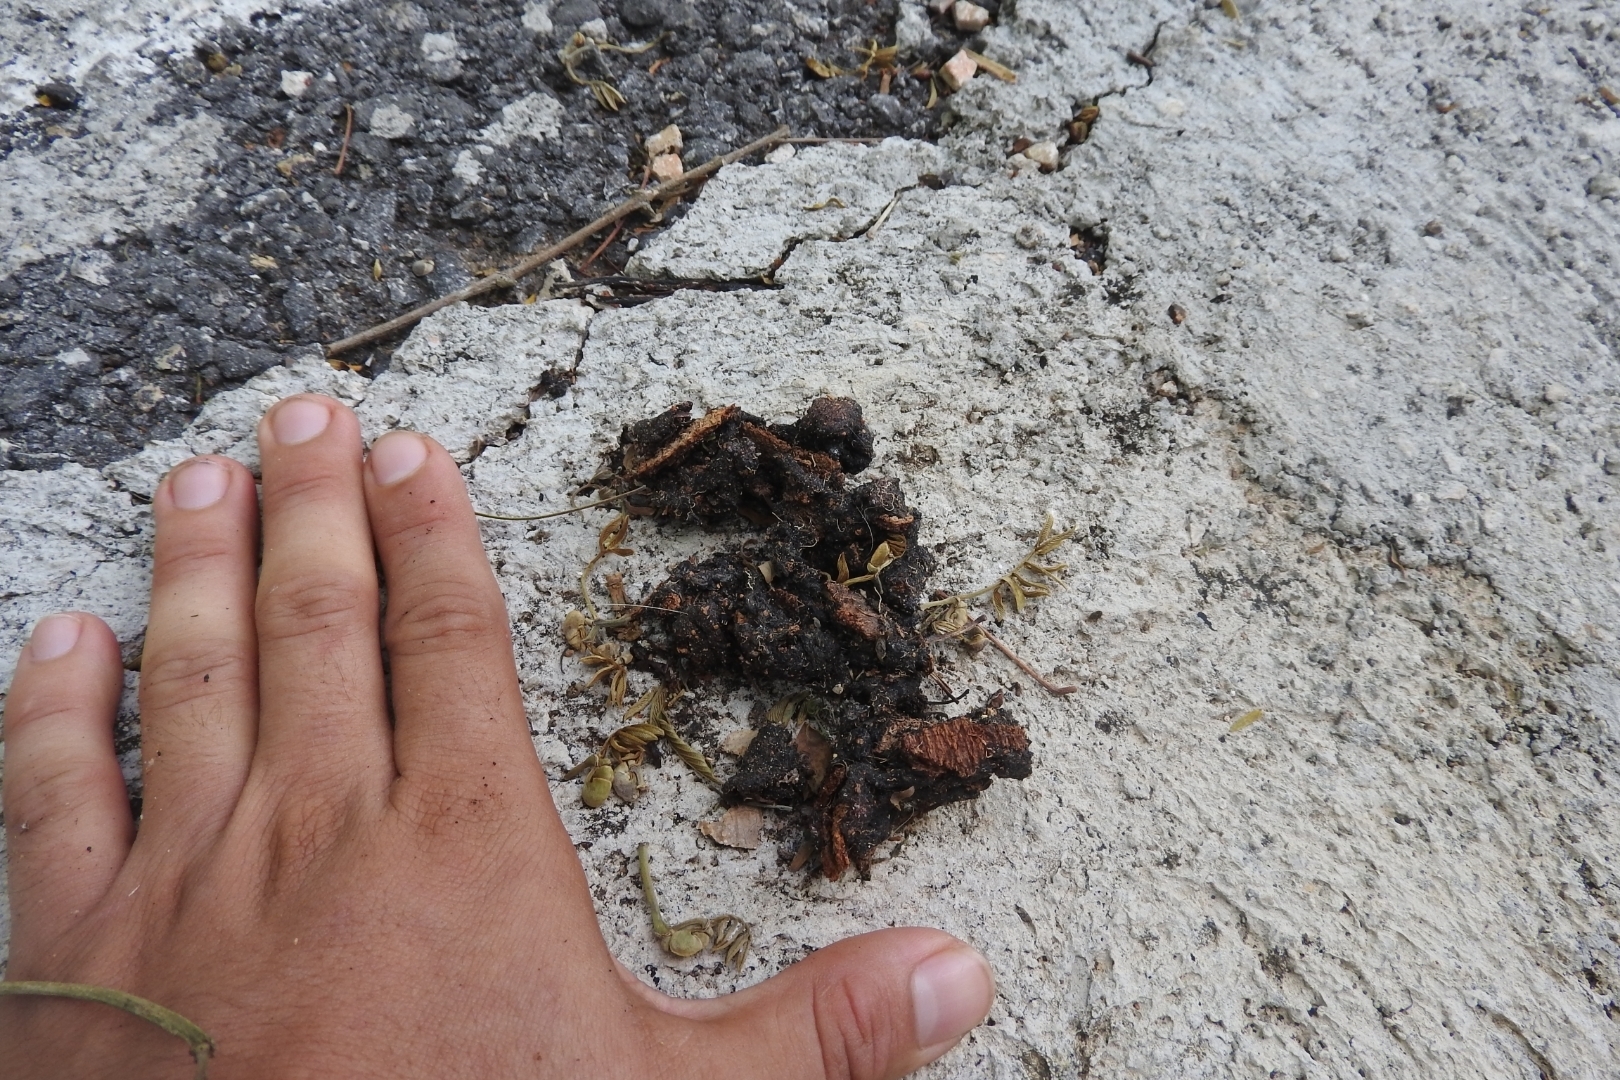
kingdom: Animalia
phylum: Chordata
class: Mammalia
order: Carnivora
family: Canidae
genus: Urocyon
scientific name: Urocyon cinereoargenteus
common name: Gray fox
